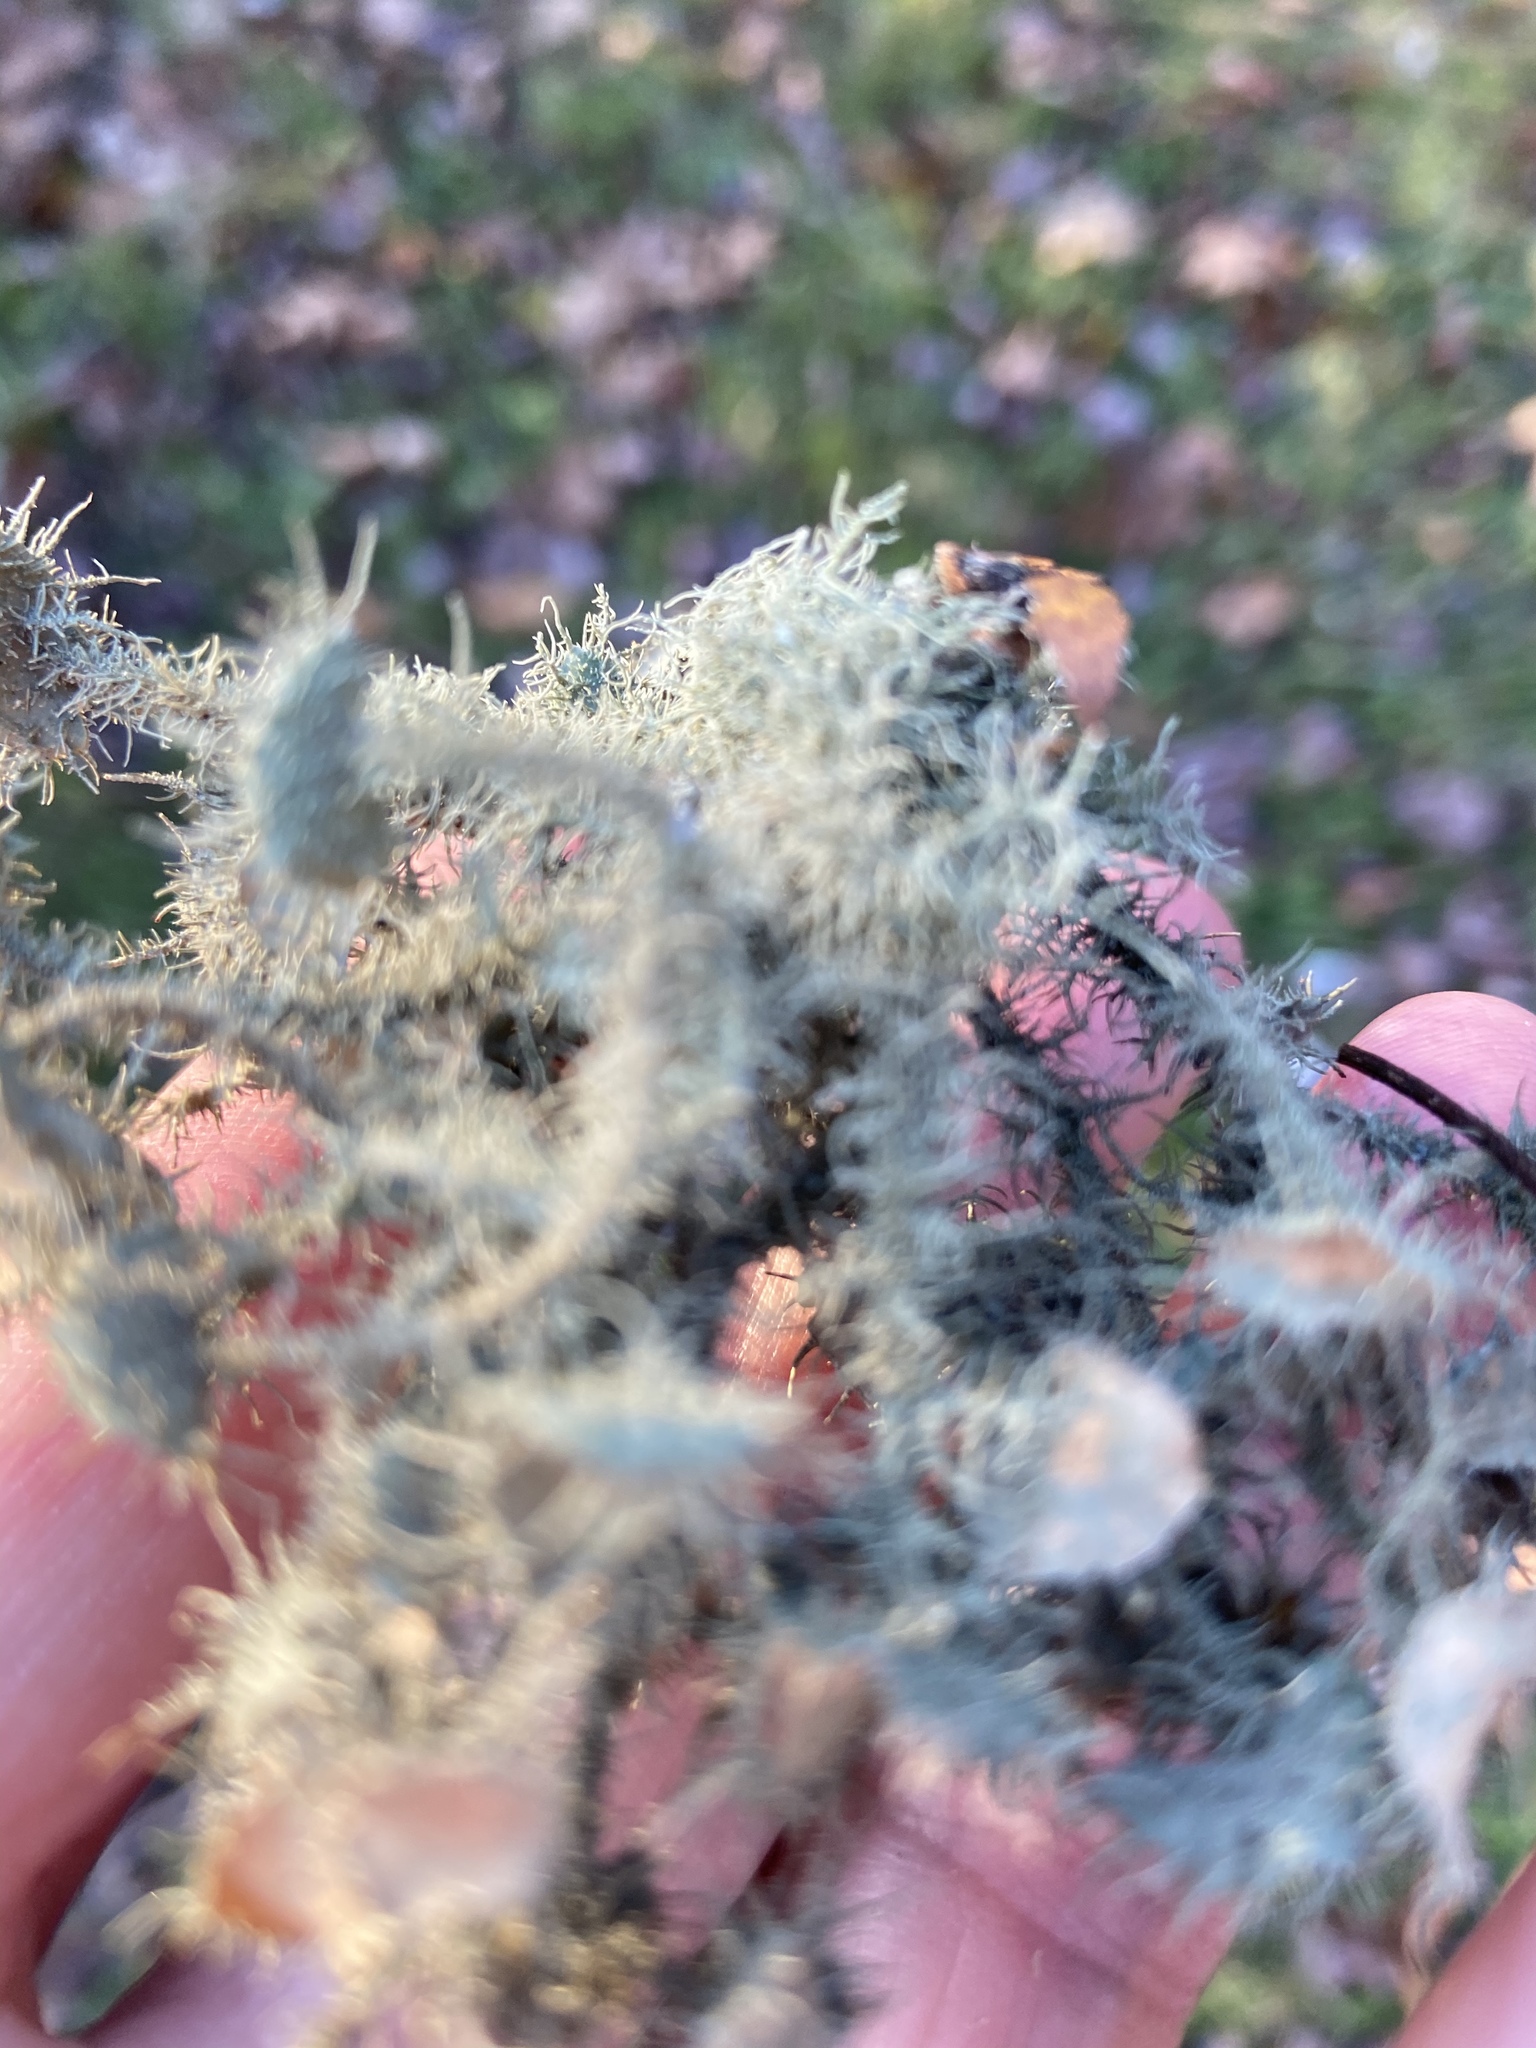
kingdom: Fungi
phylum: Ascomycota
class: Lecanoromycetes
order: Lecanorales
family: Parmeliaceae
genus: Usnea
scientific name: Usnea strigosa
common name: Bushy beard lichen
